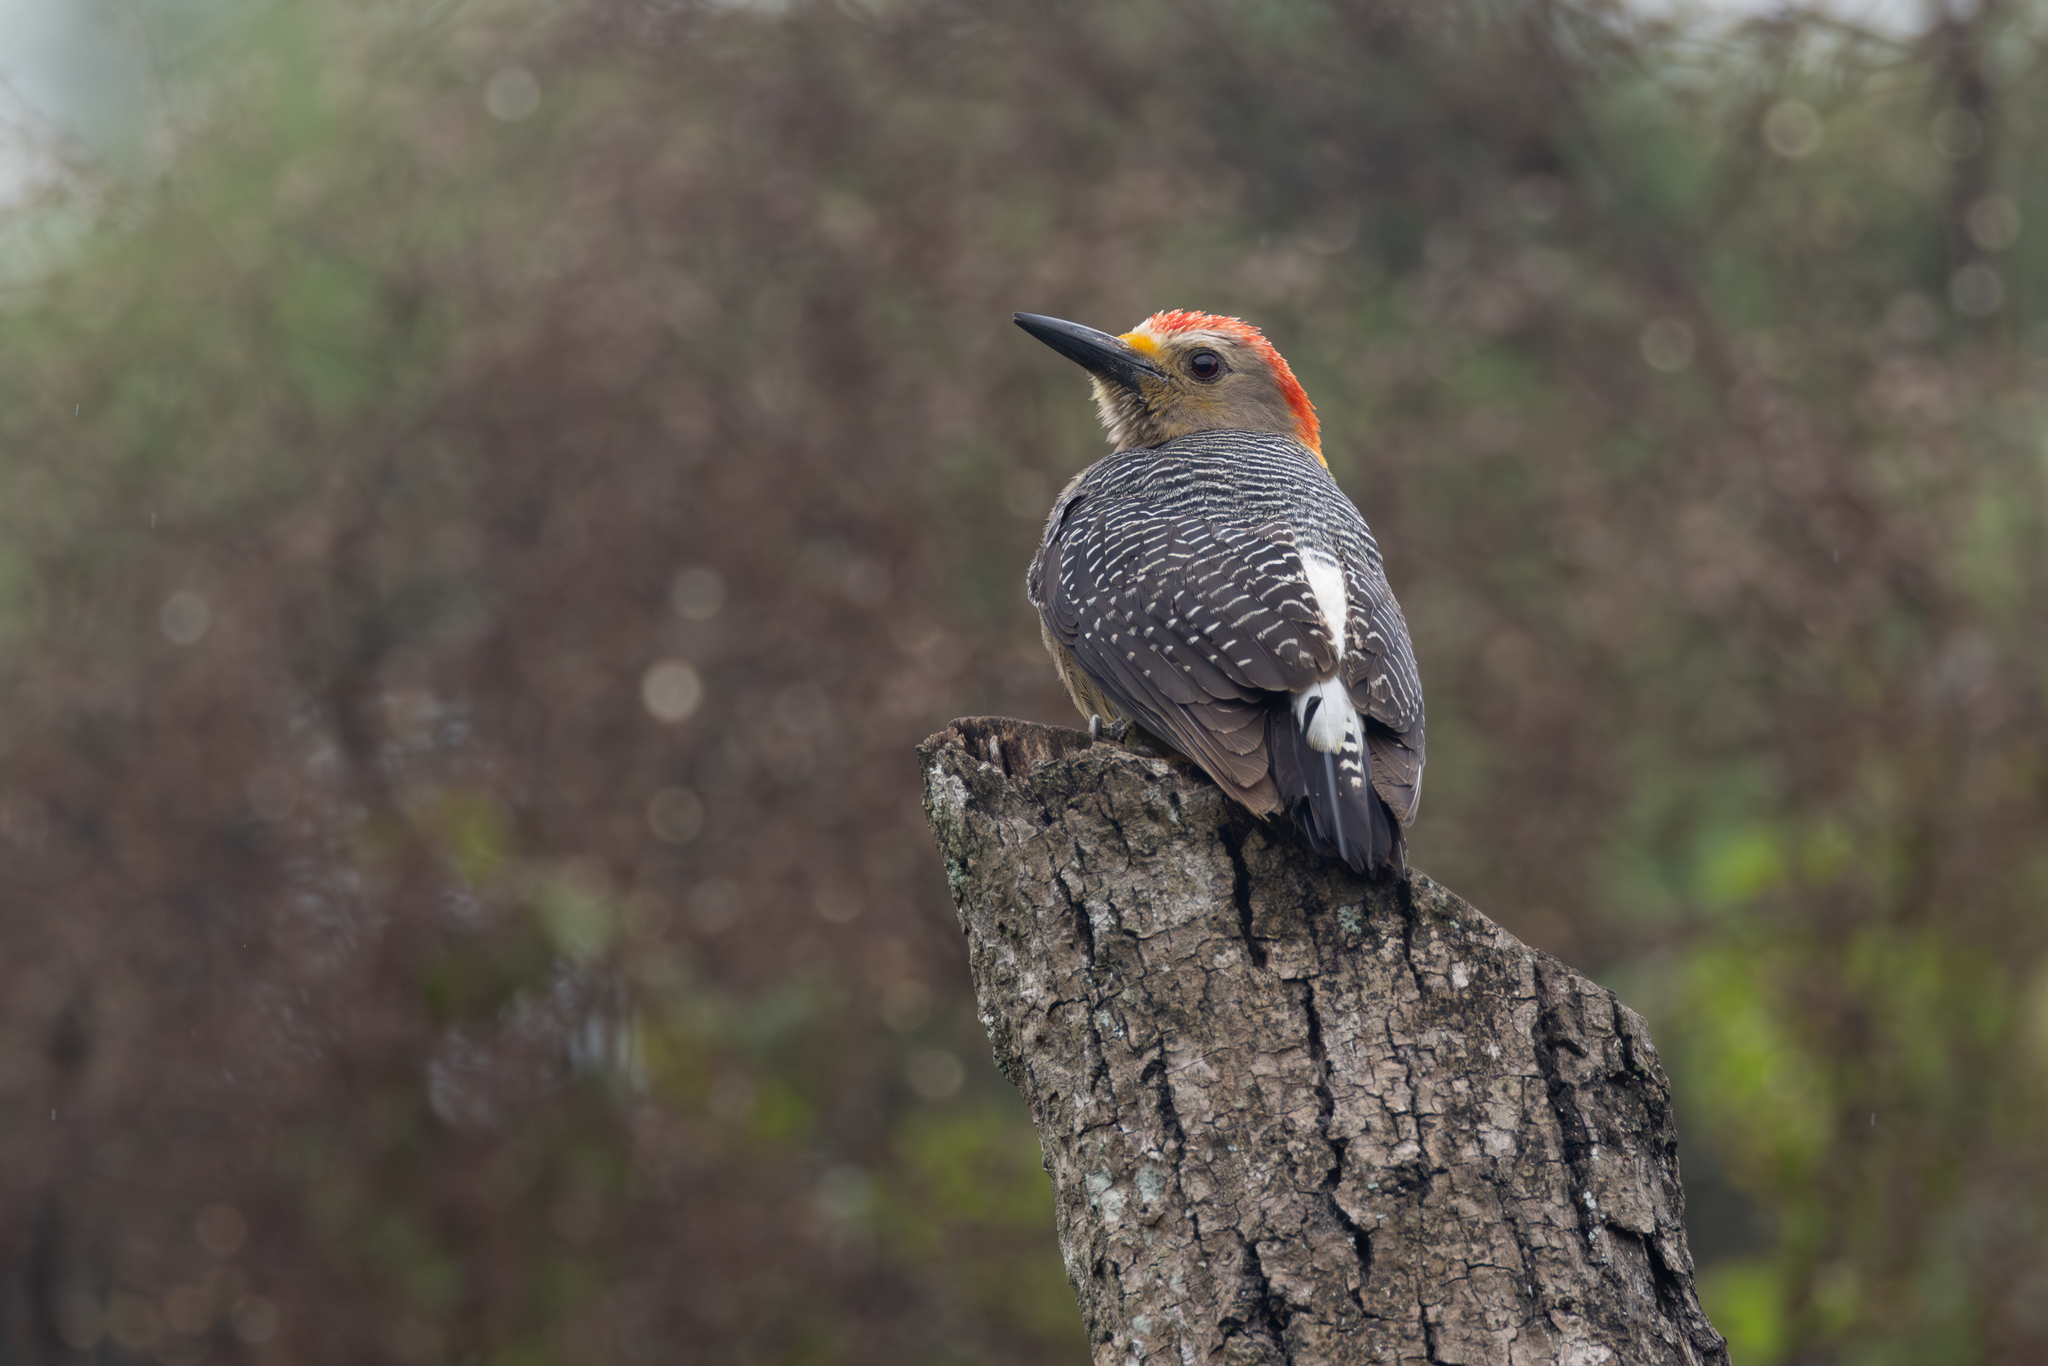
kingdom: Animalia
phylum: Chordata
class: Aves
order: Piciformes
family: Picidae
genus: Melanerpes
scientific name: Melanerpes aurifrons
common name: Golden-fronted woodpecker
